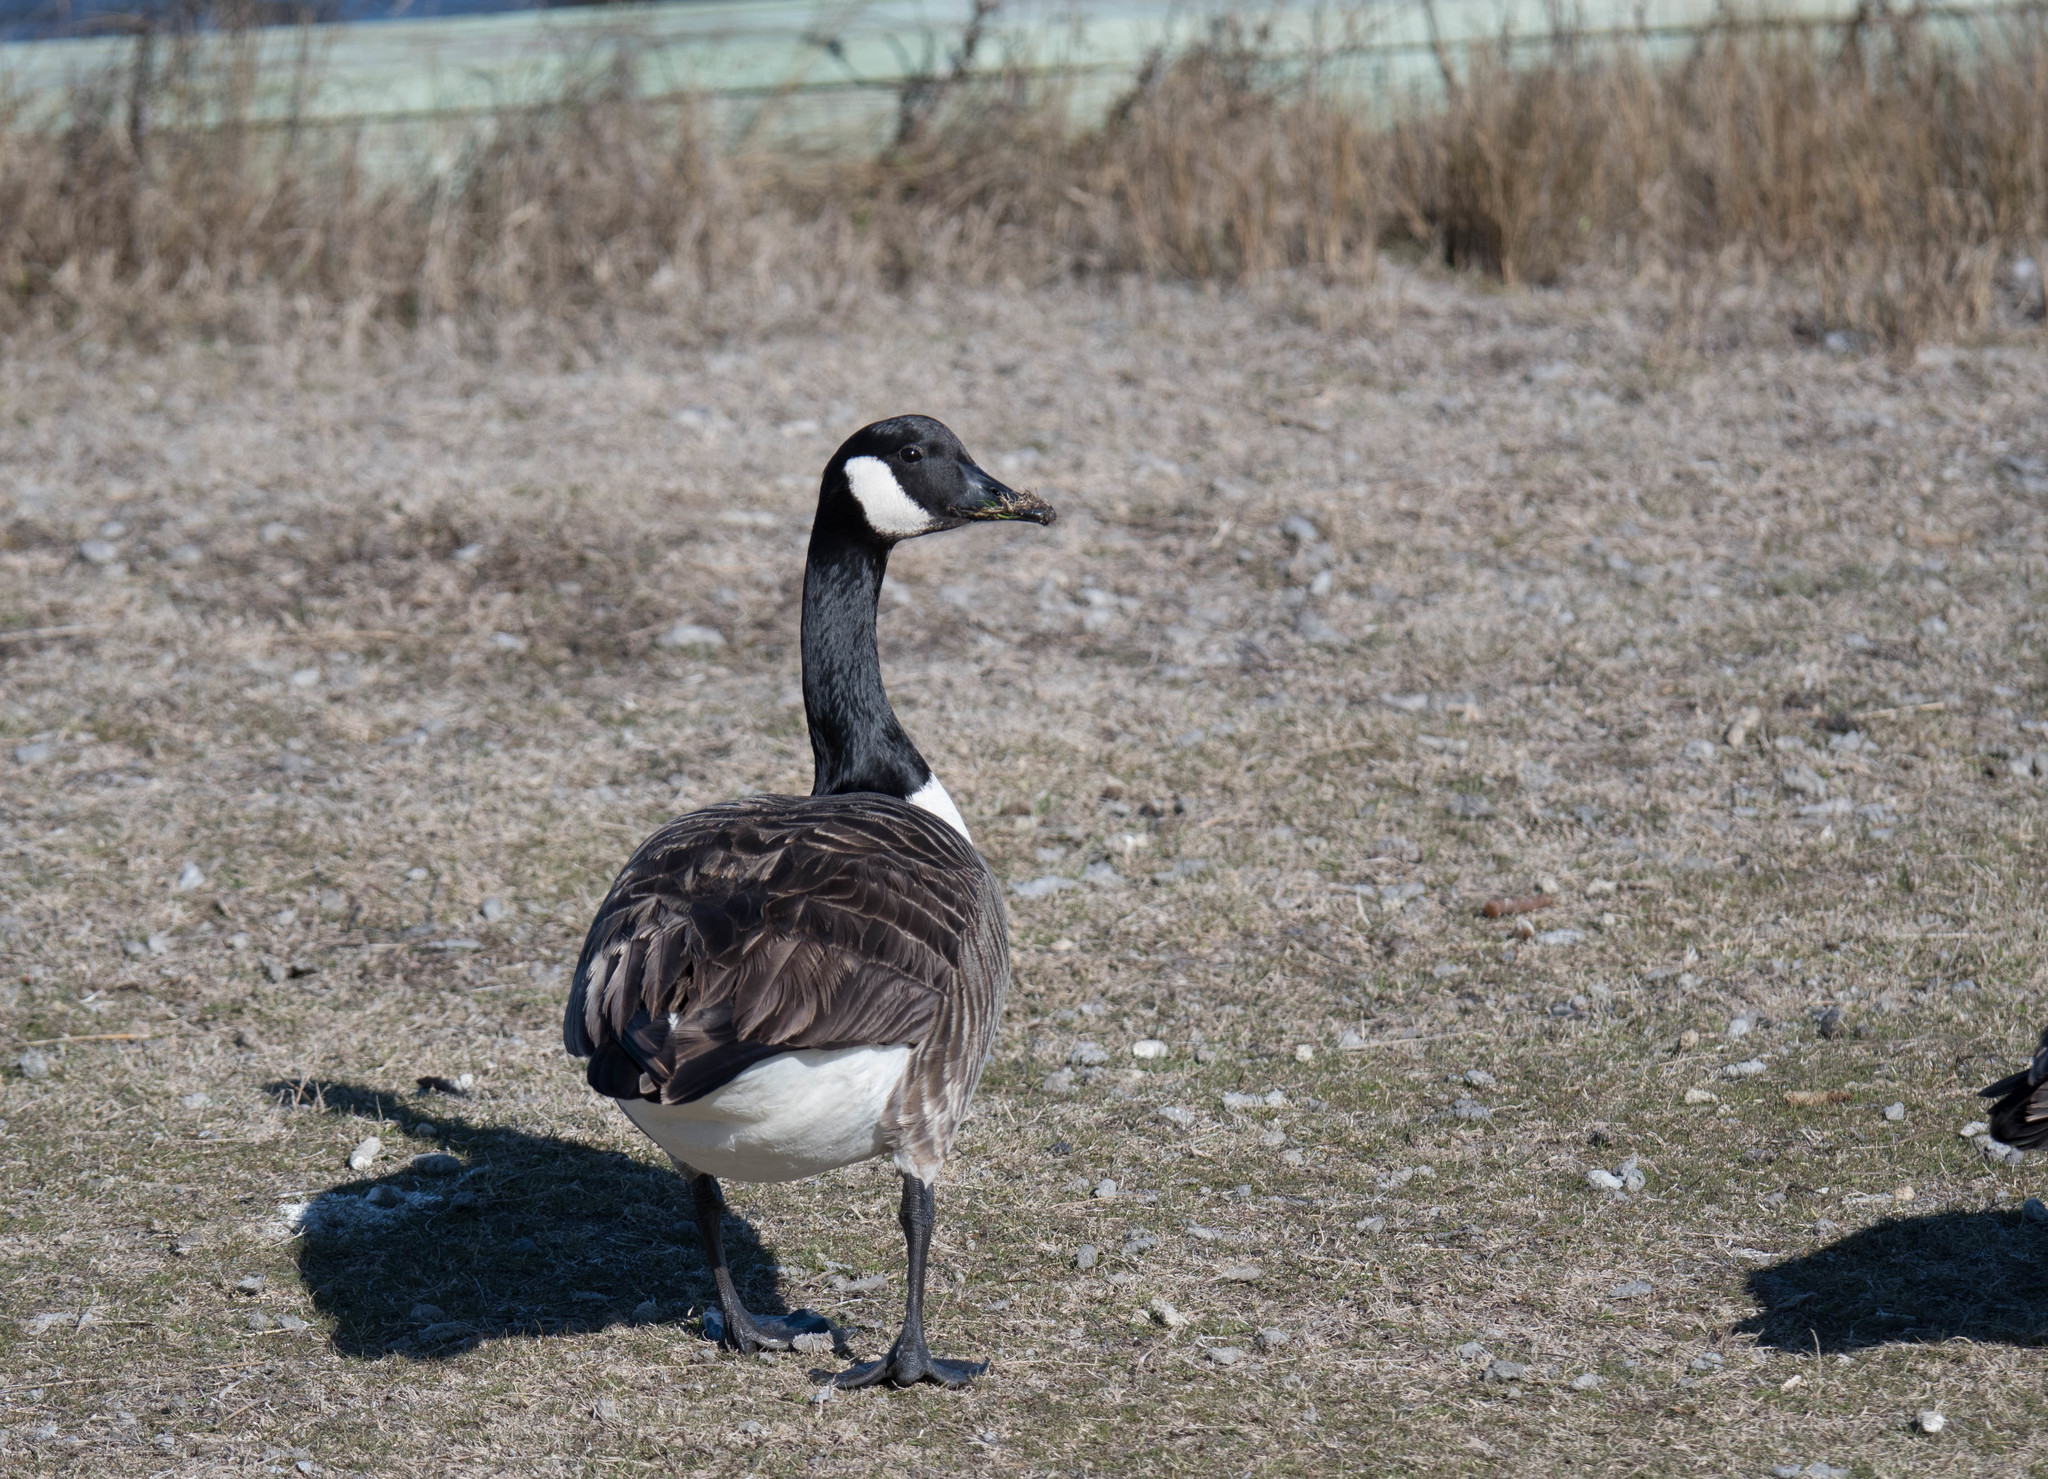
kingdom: Animalia
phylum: Chordata
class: Aves
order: Anseriformes
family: Anatidae
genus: Branta
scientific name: Branta canadensis
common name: Canada goose
